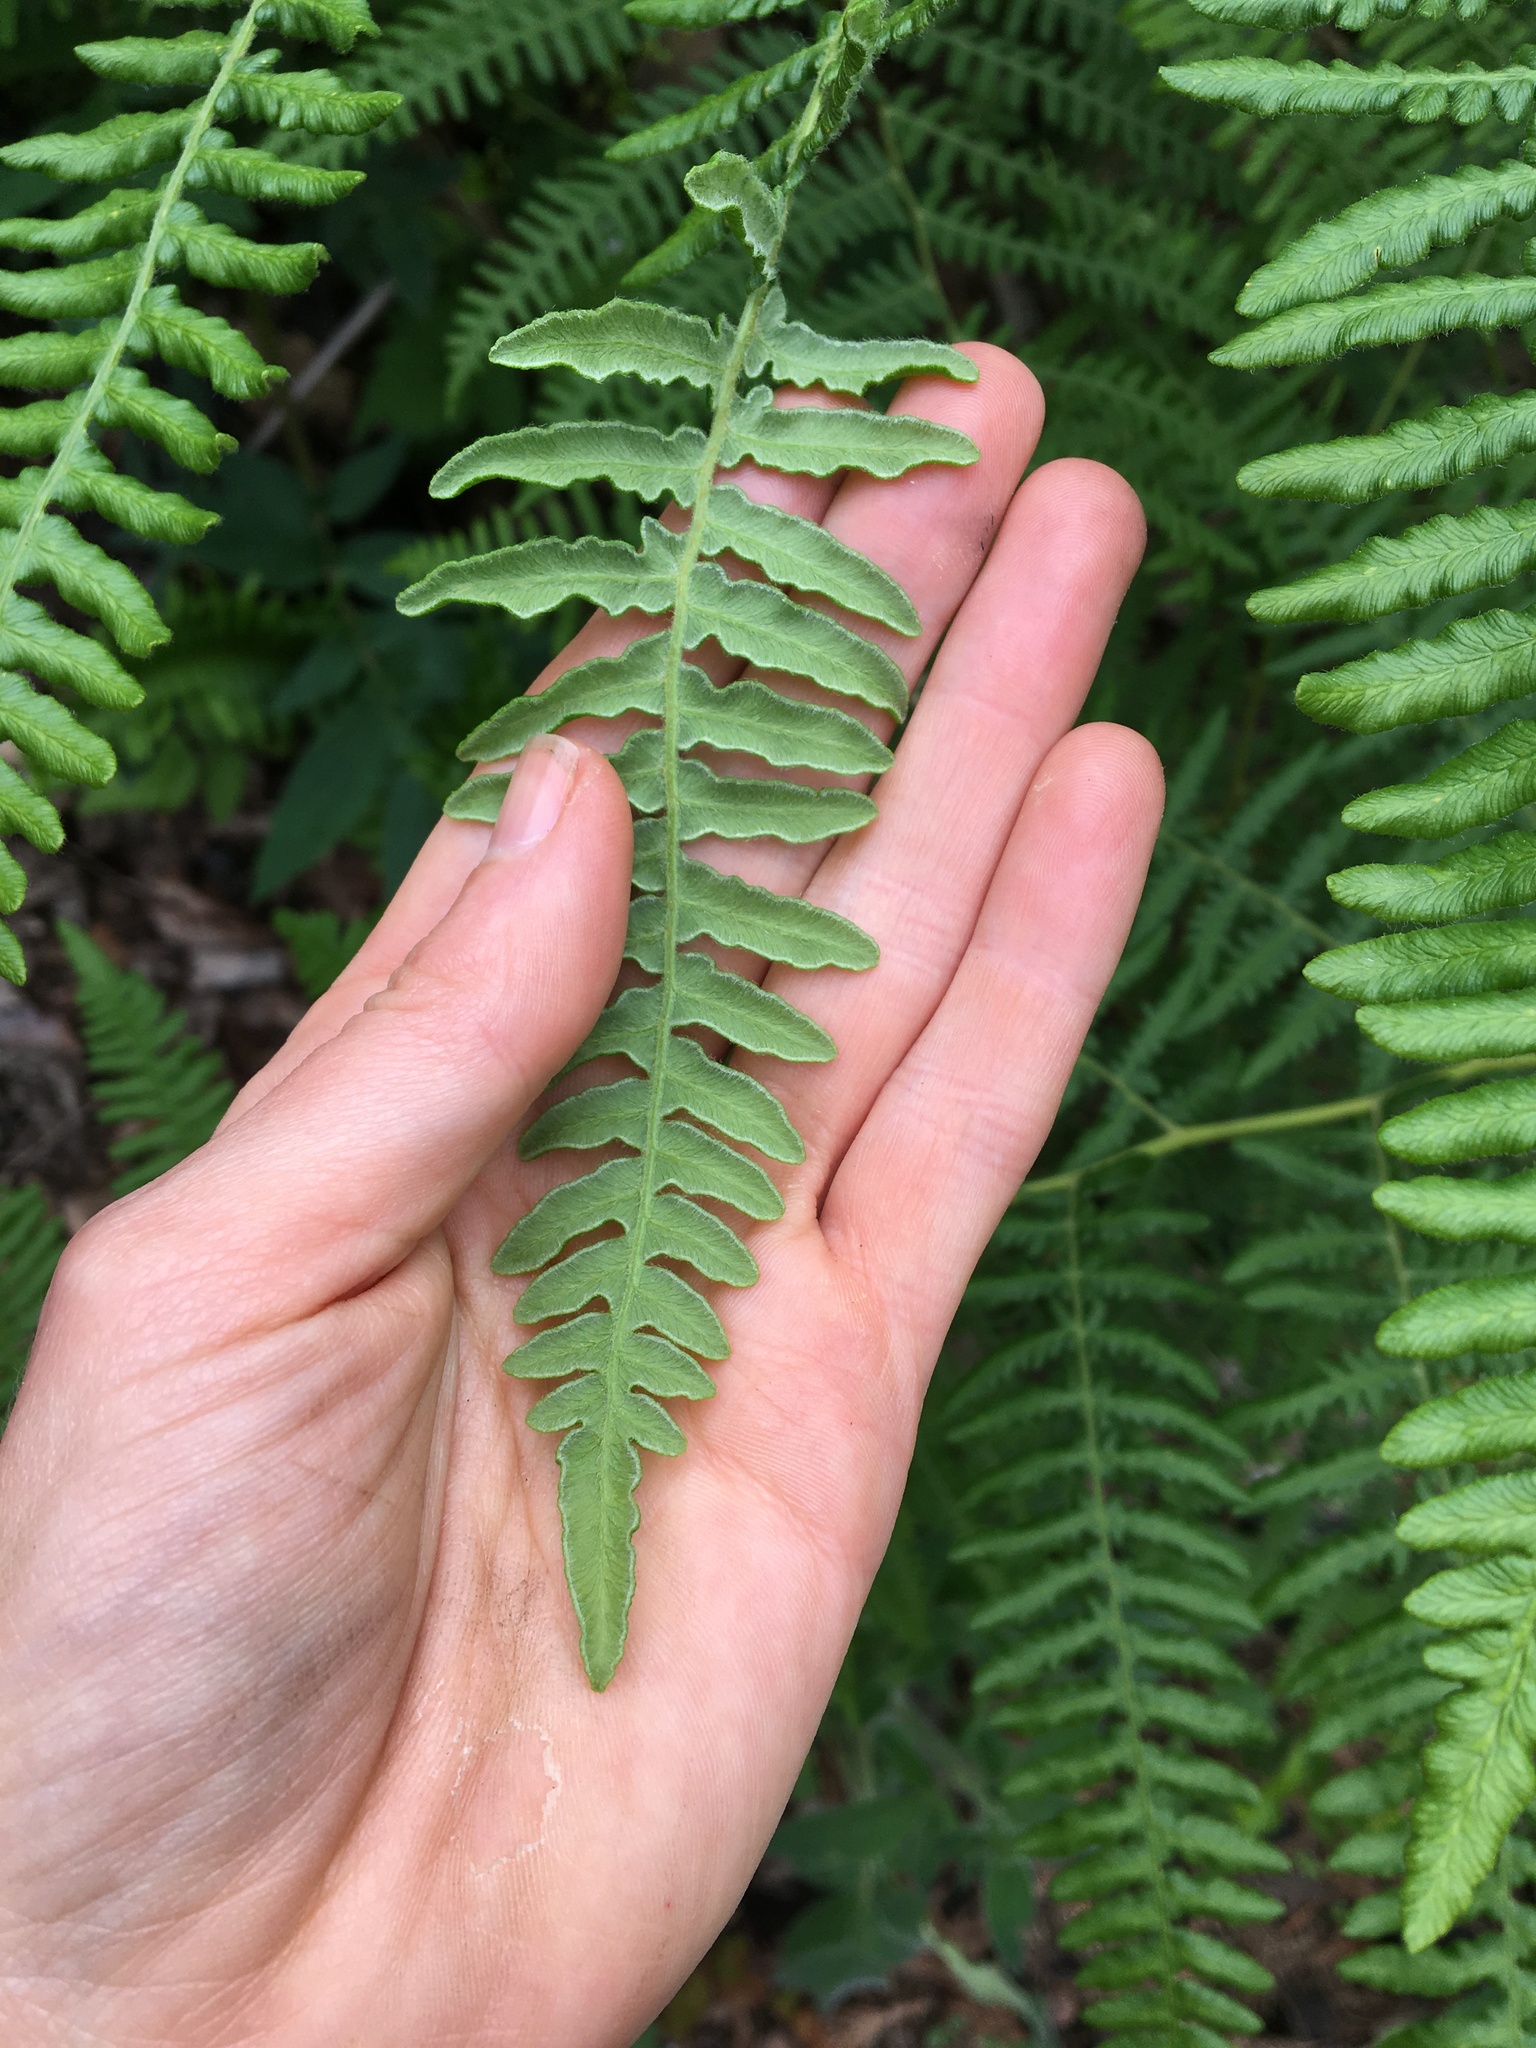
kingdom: Plantae
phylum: Tracheophyta
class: Polypodiopsida
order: Polypodiales
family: Dennstaedtiaceae
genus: Pteridium
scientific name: Pteridium aquilinum
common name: Bracken
